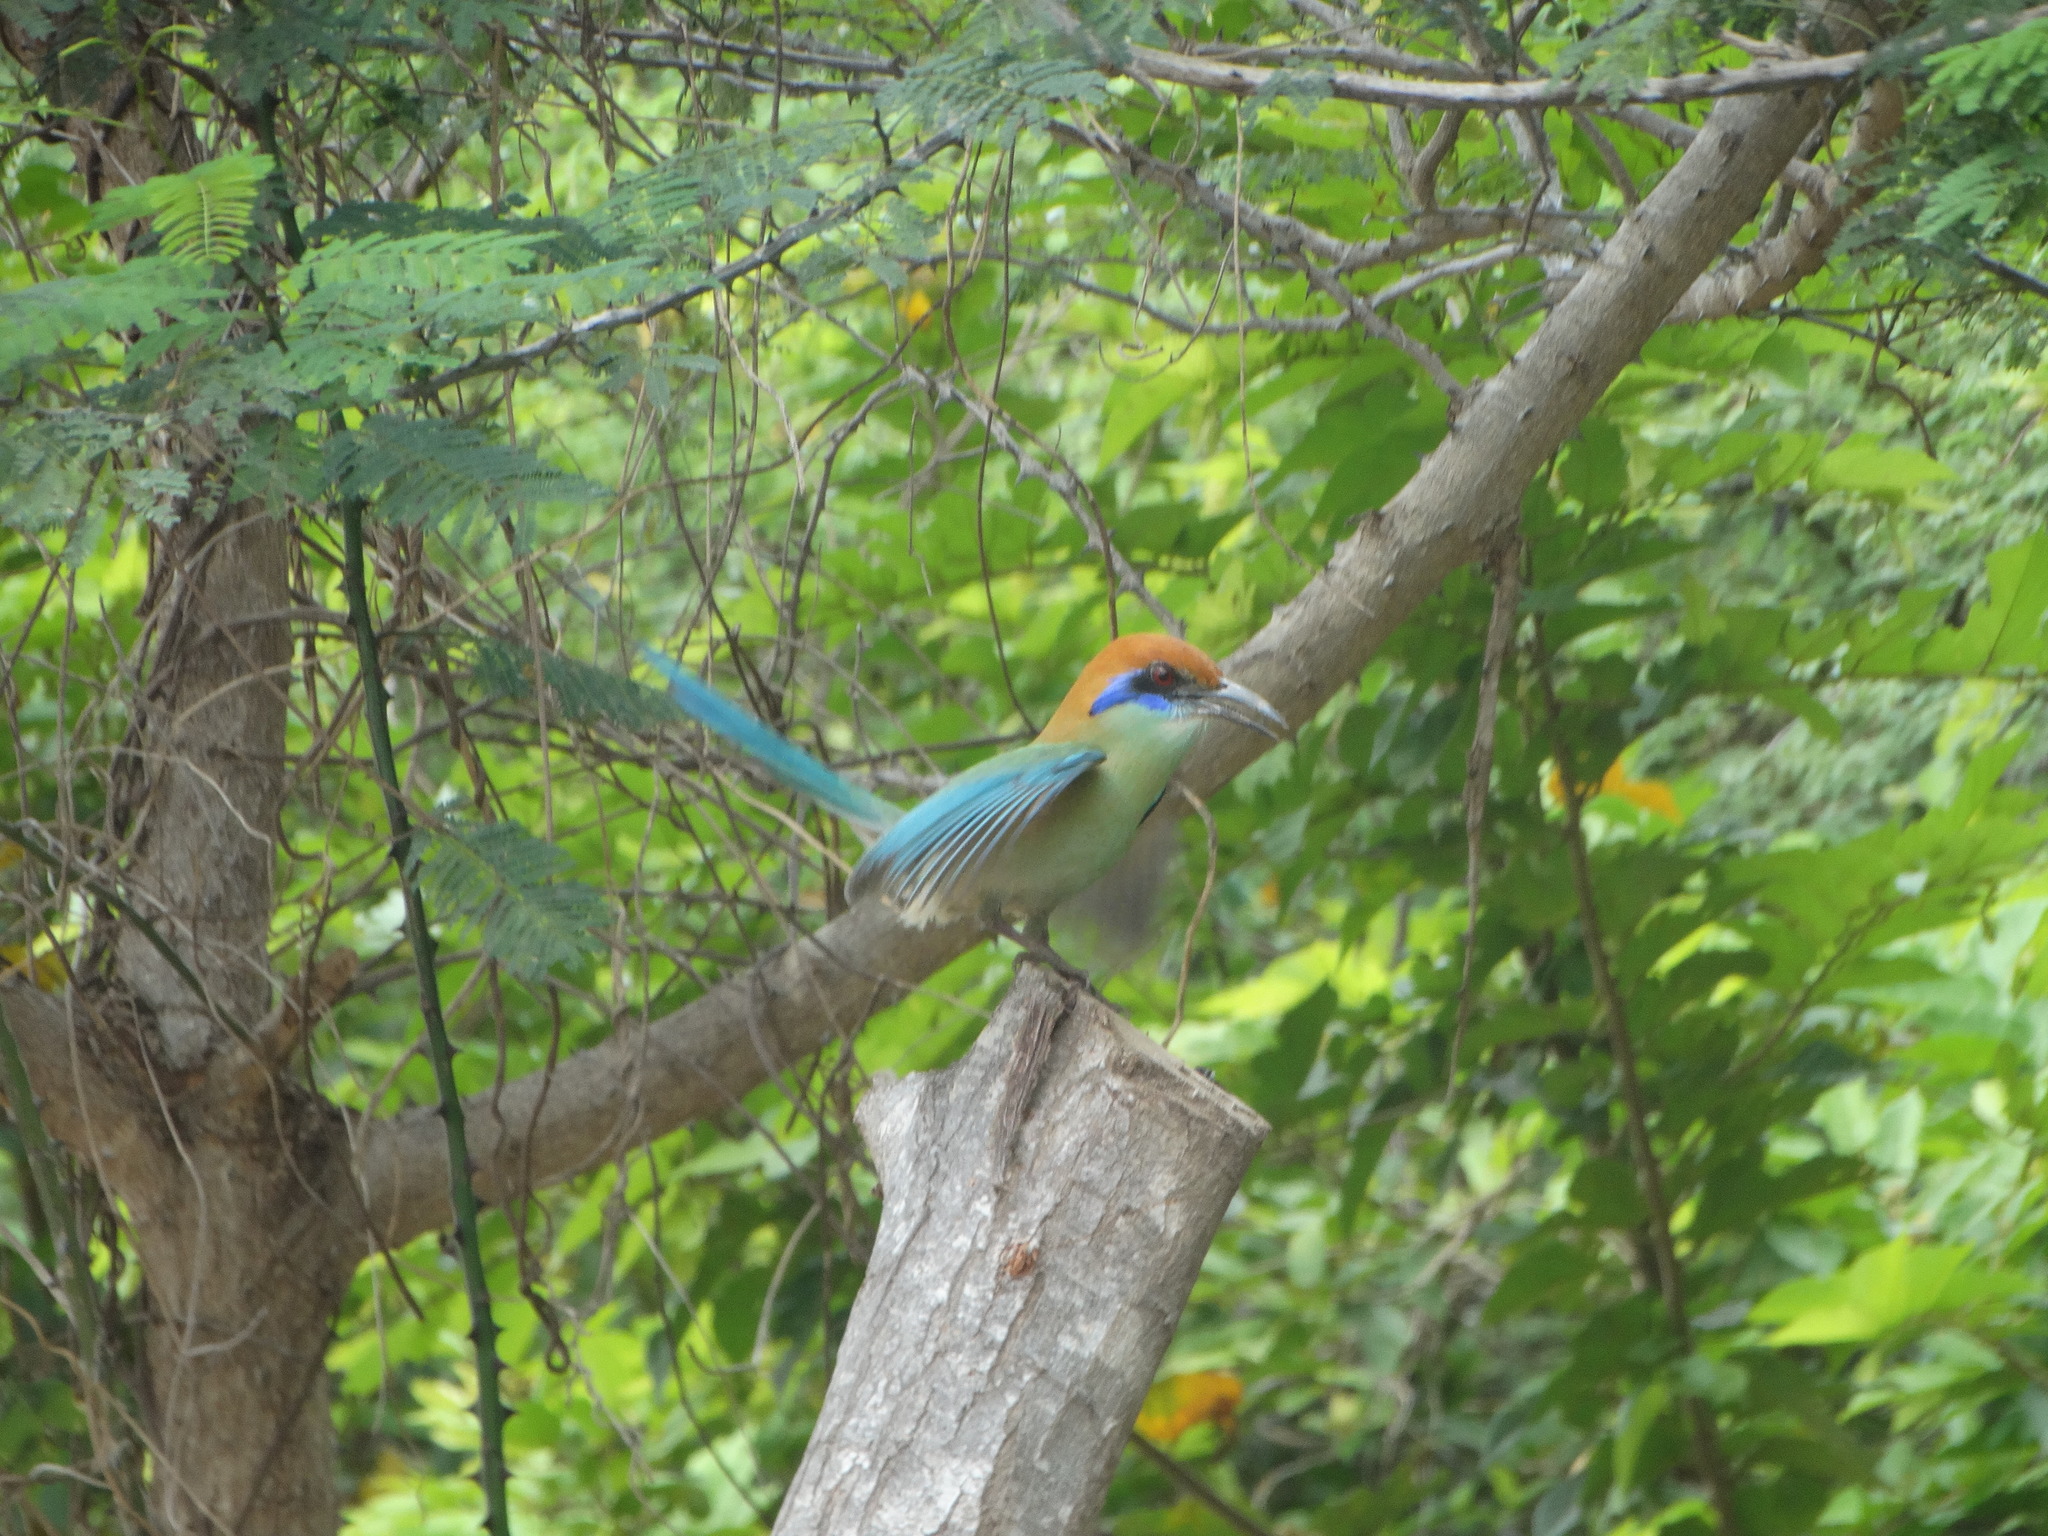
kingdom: Animalia
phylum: Chordata
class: Aves
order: Coraciiformes
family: Momotidae
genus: Momotus
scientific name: Momotus mexicanus
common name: Russet-crowned motmot
